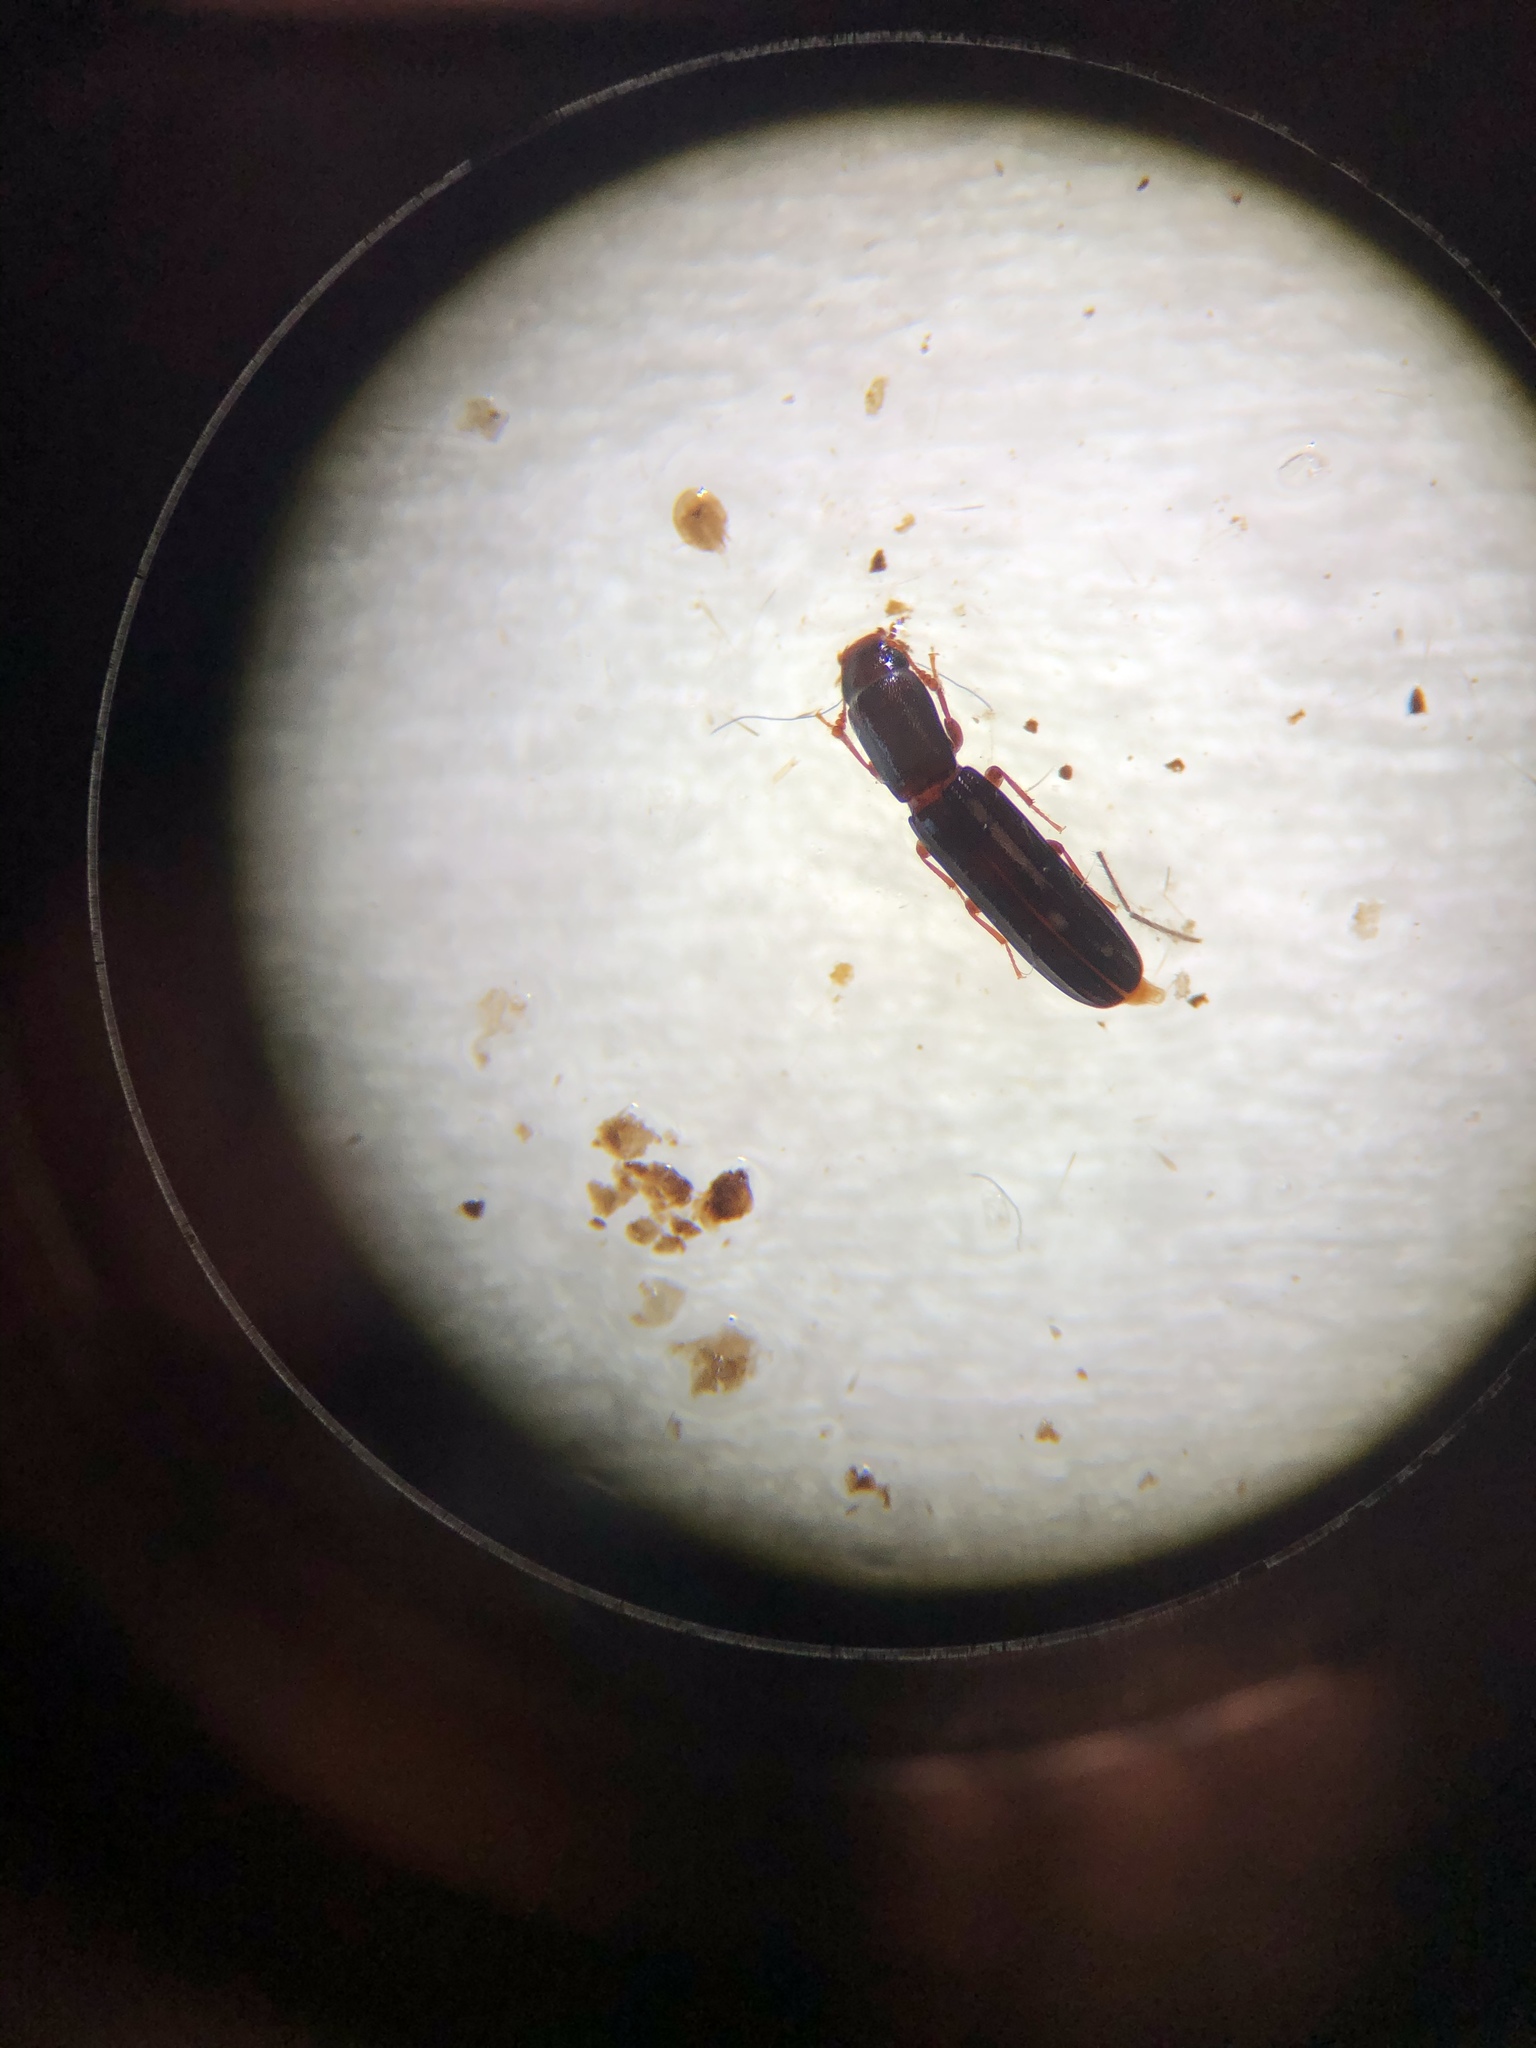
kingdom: Animalia
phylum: Arthropoda
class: Insecta
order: Coleoptera
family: Zopheridae
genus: Colydium
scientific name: Colydium lineola
